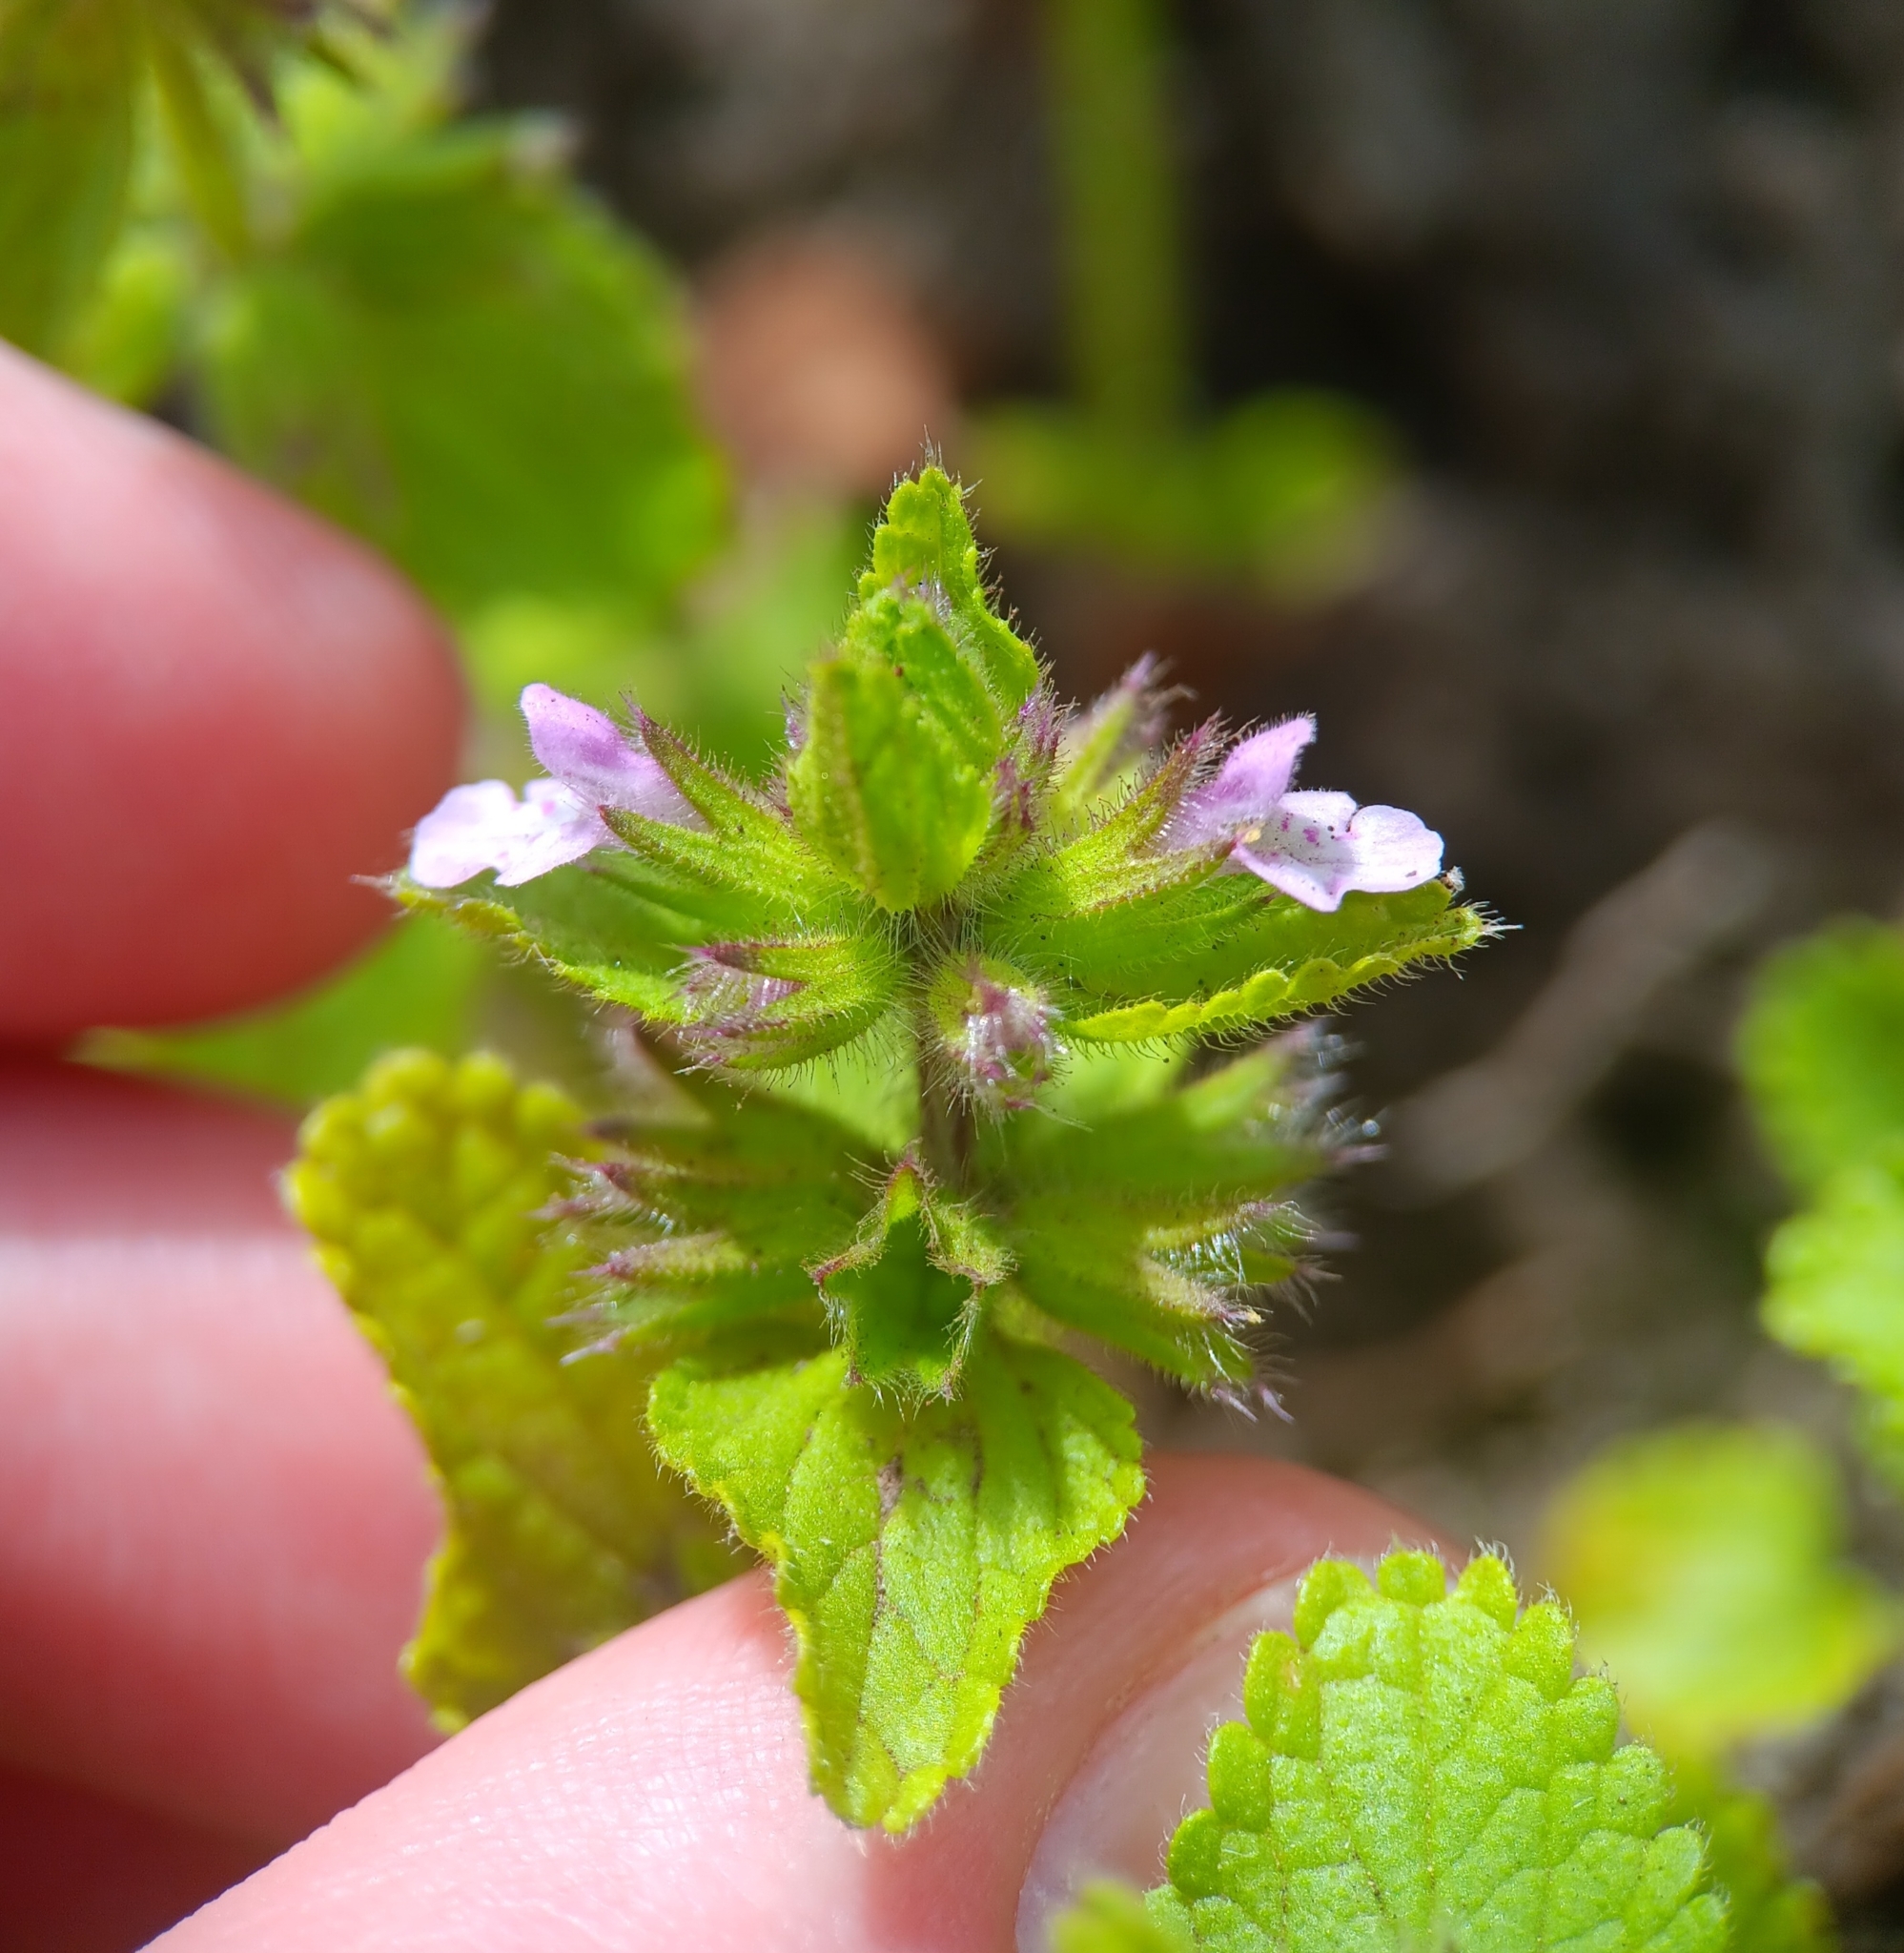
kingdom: Plantae
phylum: Tracheophyta
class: Magnoliopsida
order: Lamiales
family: Lamiaceae
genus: Stachys
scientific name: Stachys arvensis
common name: Field woundwort
